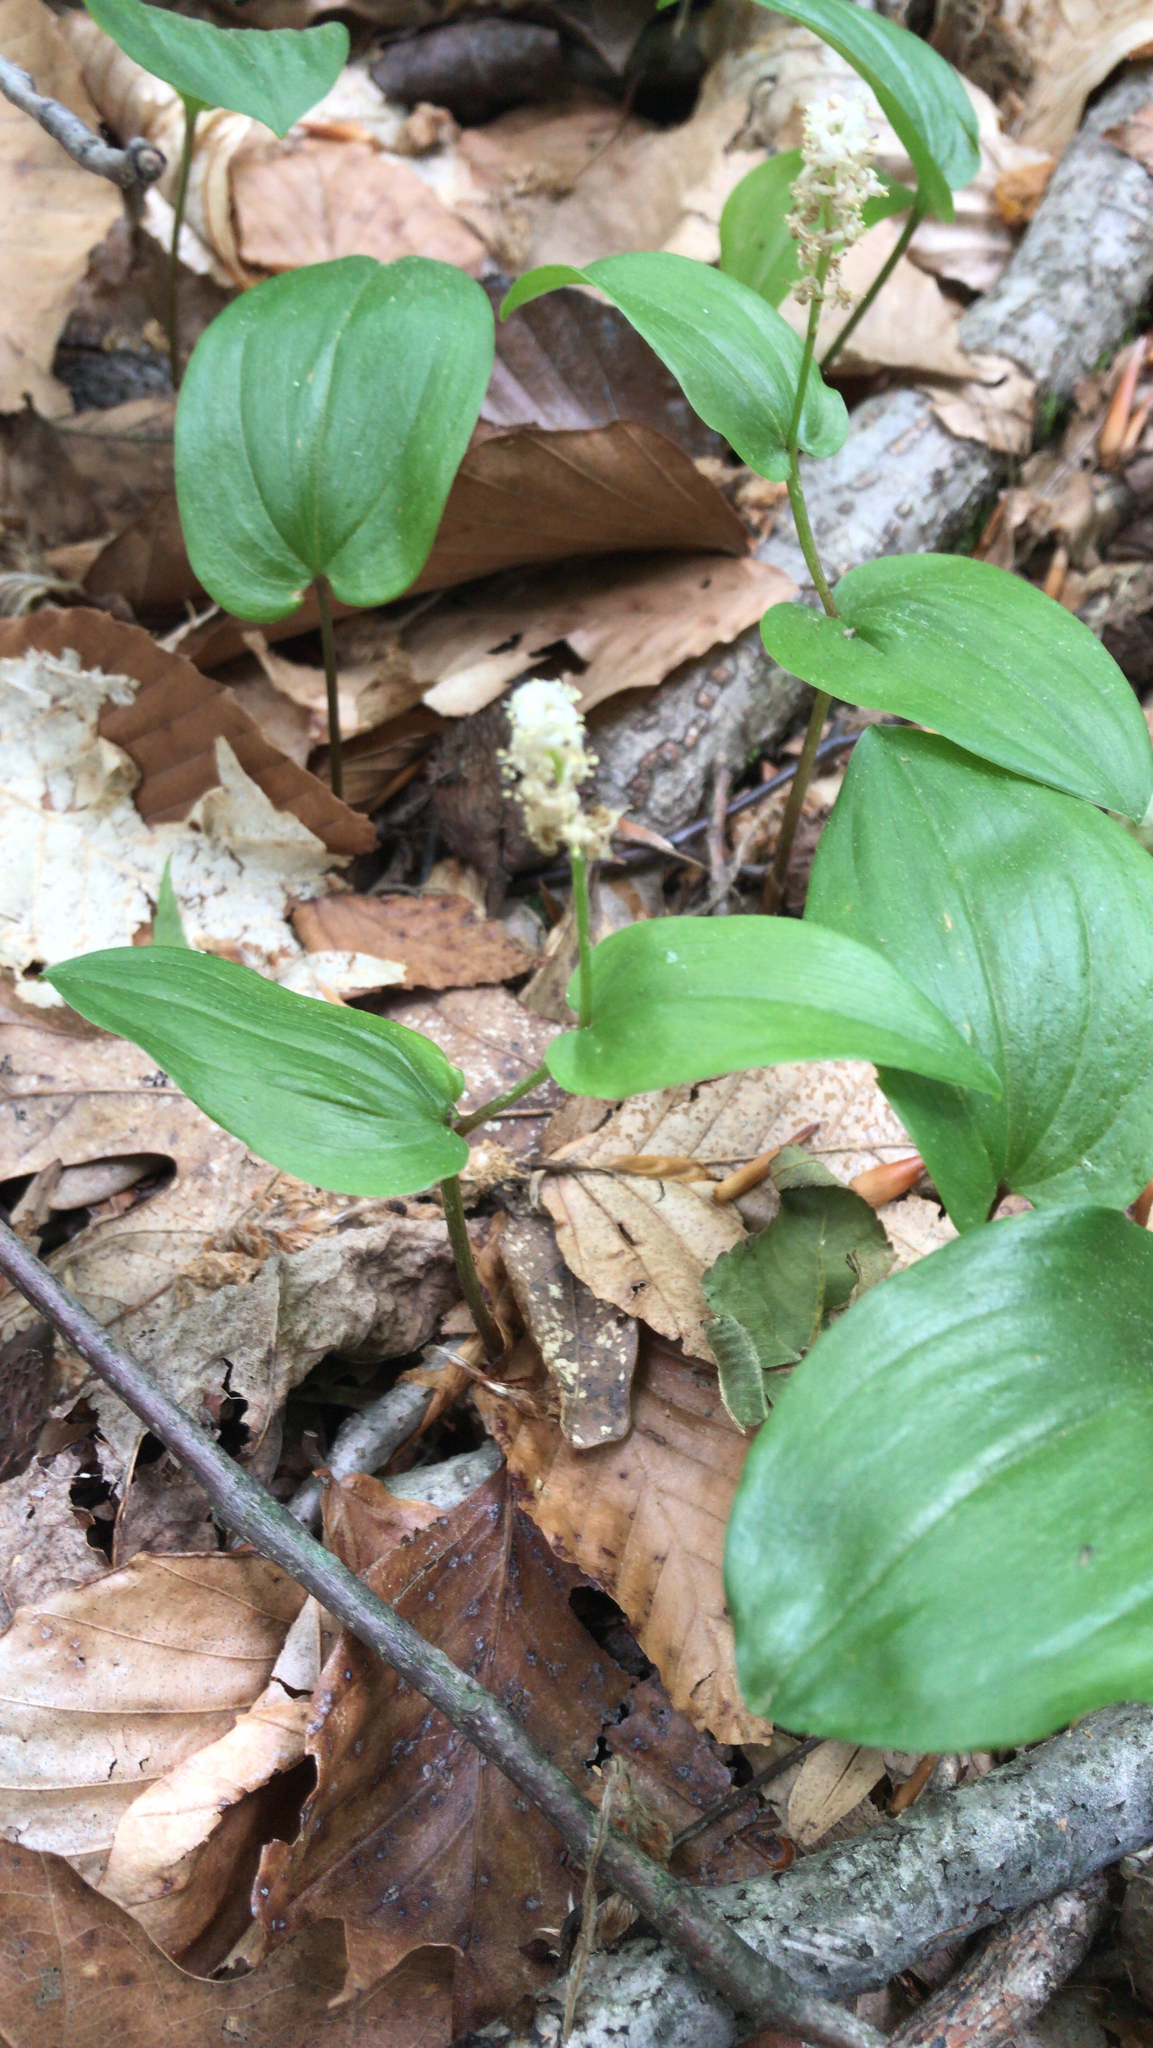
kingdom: Plantae
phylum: Tracheophyta
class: Liliopsida
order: Asparagales
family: Asparagaceae
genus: Maianthemum
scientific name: Maianthemum canadense
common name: False lily-of-the-valley
